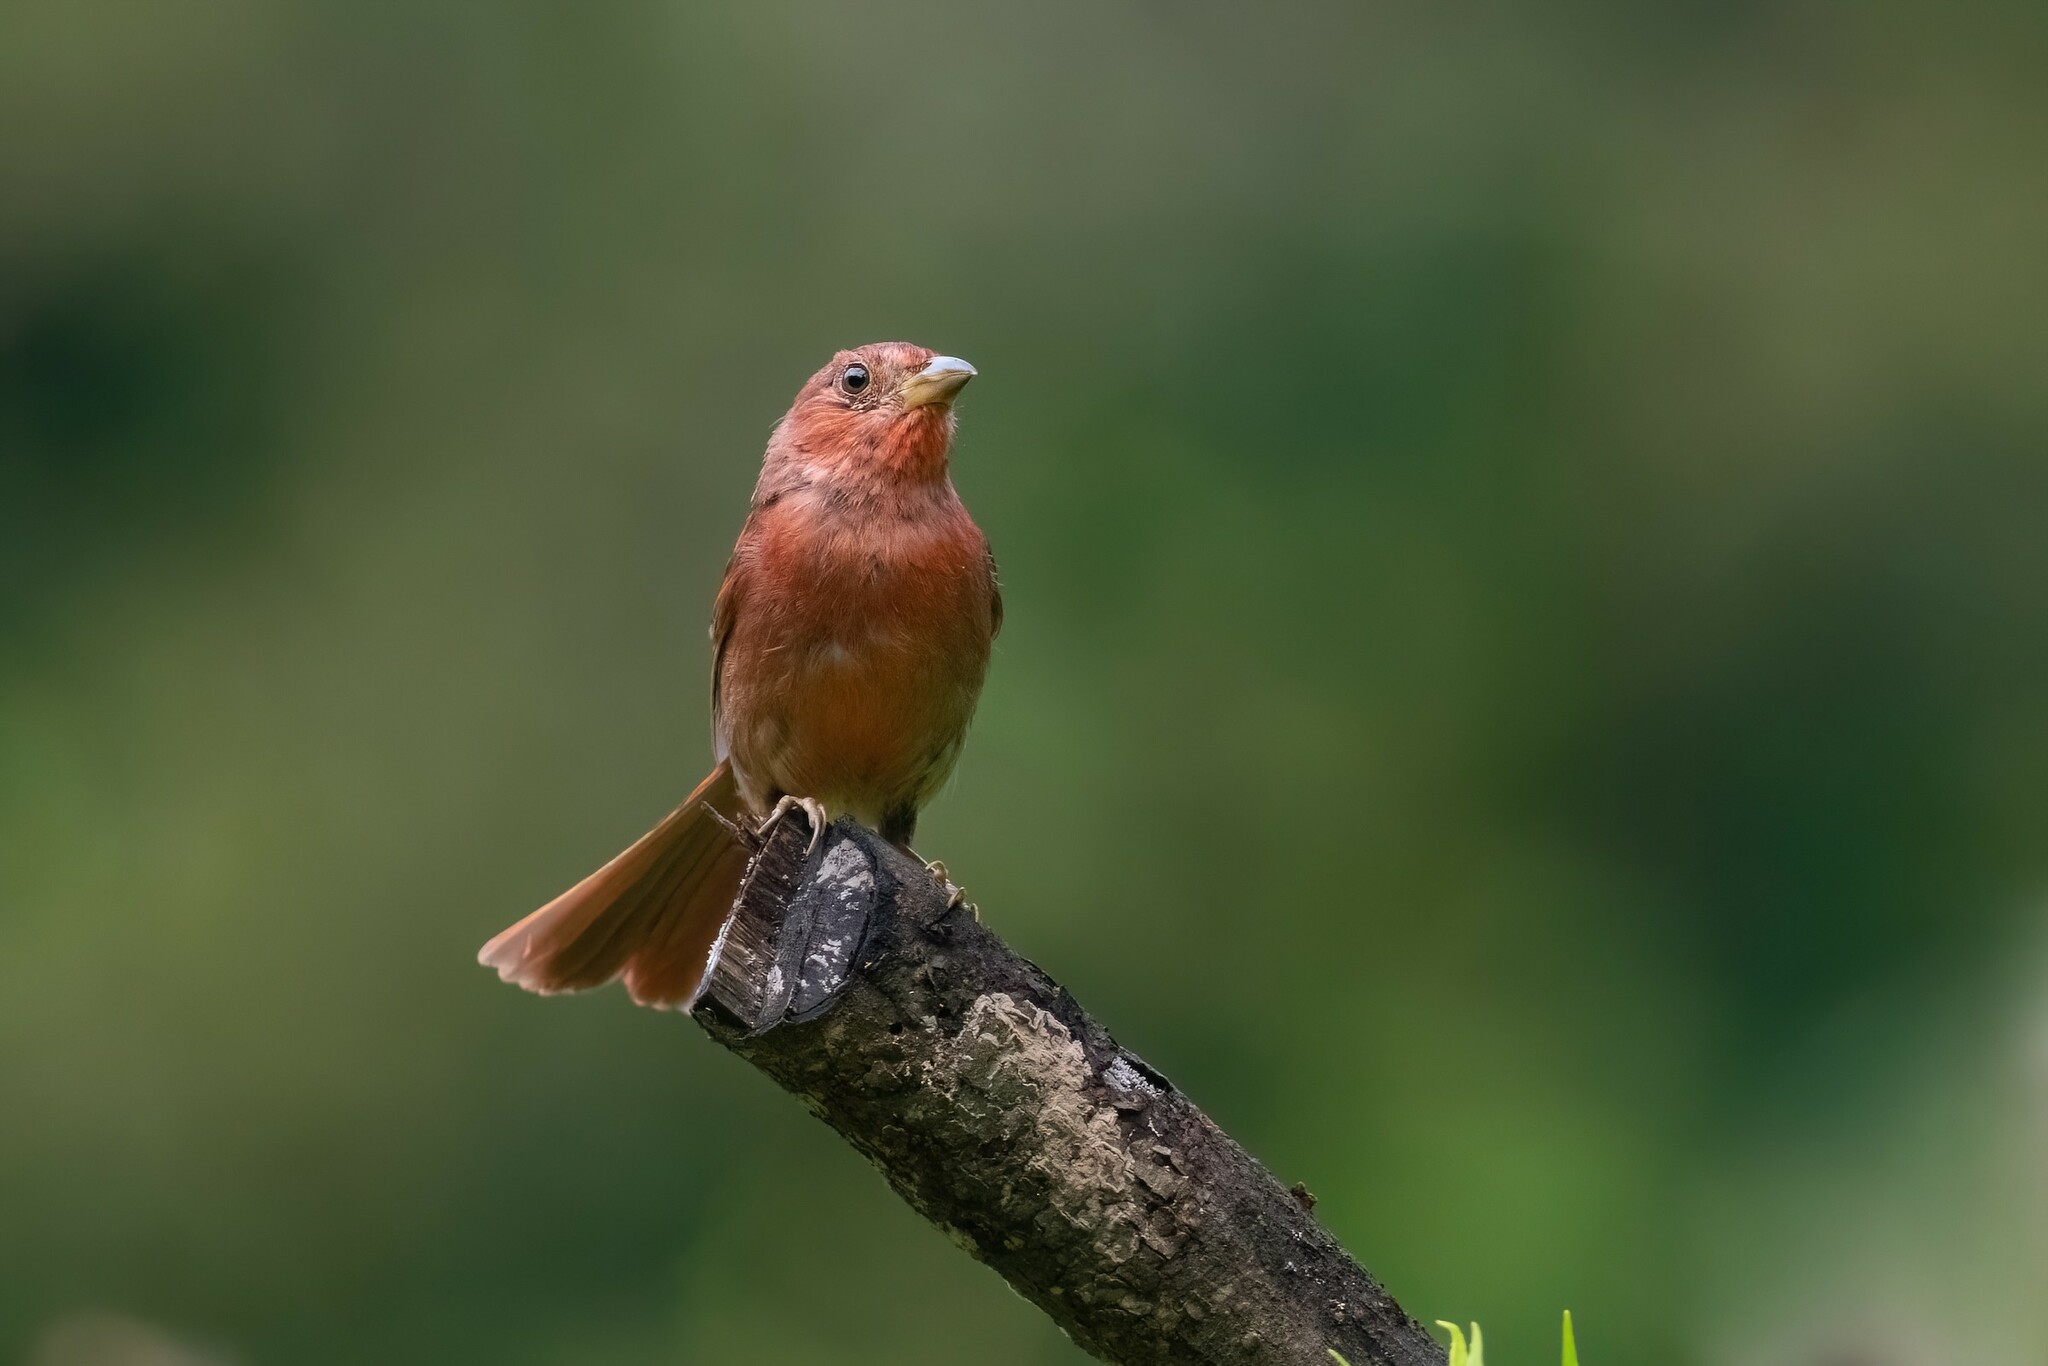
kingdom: Animalia
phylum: Chordata
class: Aves
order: Passeriformes
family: Cardinalidae
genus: Habia
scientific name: Habia rubica
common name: Red-crowned ant-tanager
